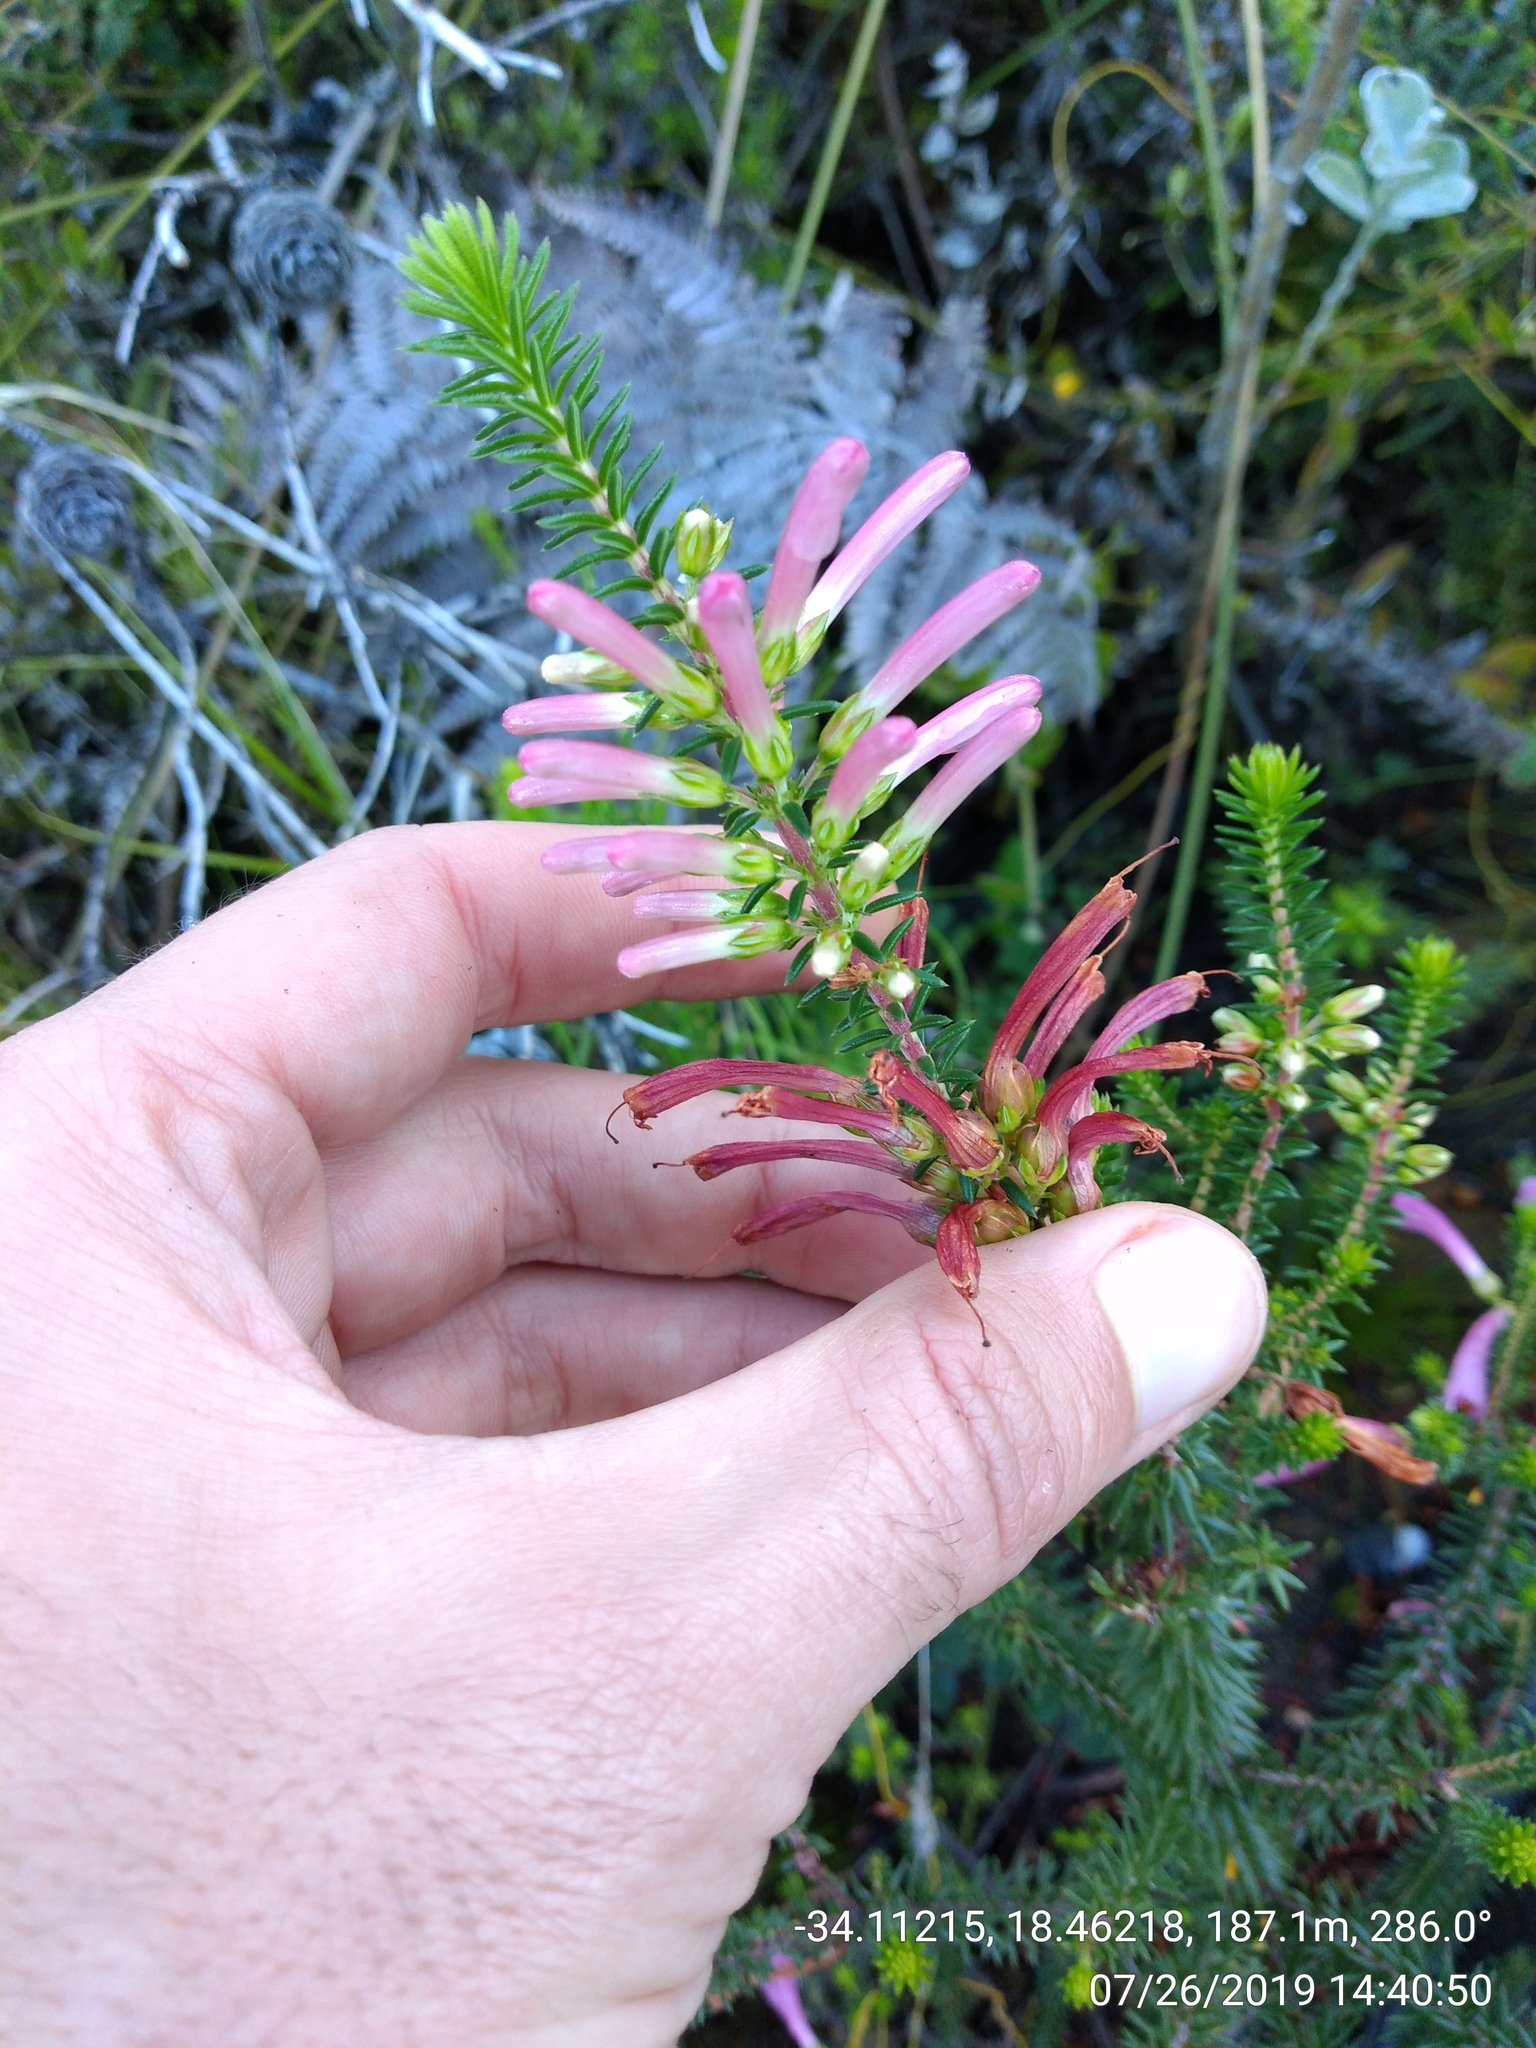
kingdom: Plantae
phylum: Tracheophyta
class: Magnoliopsida
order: Ericales
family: Ericaceae
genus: Erica
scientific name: Erica abietina
